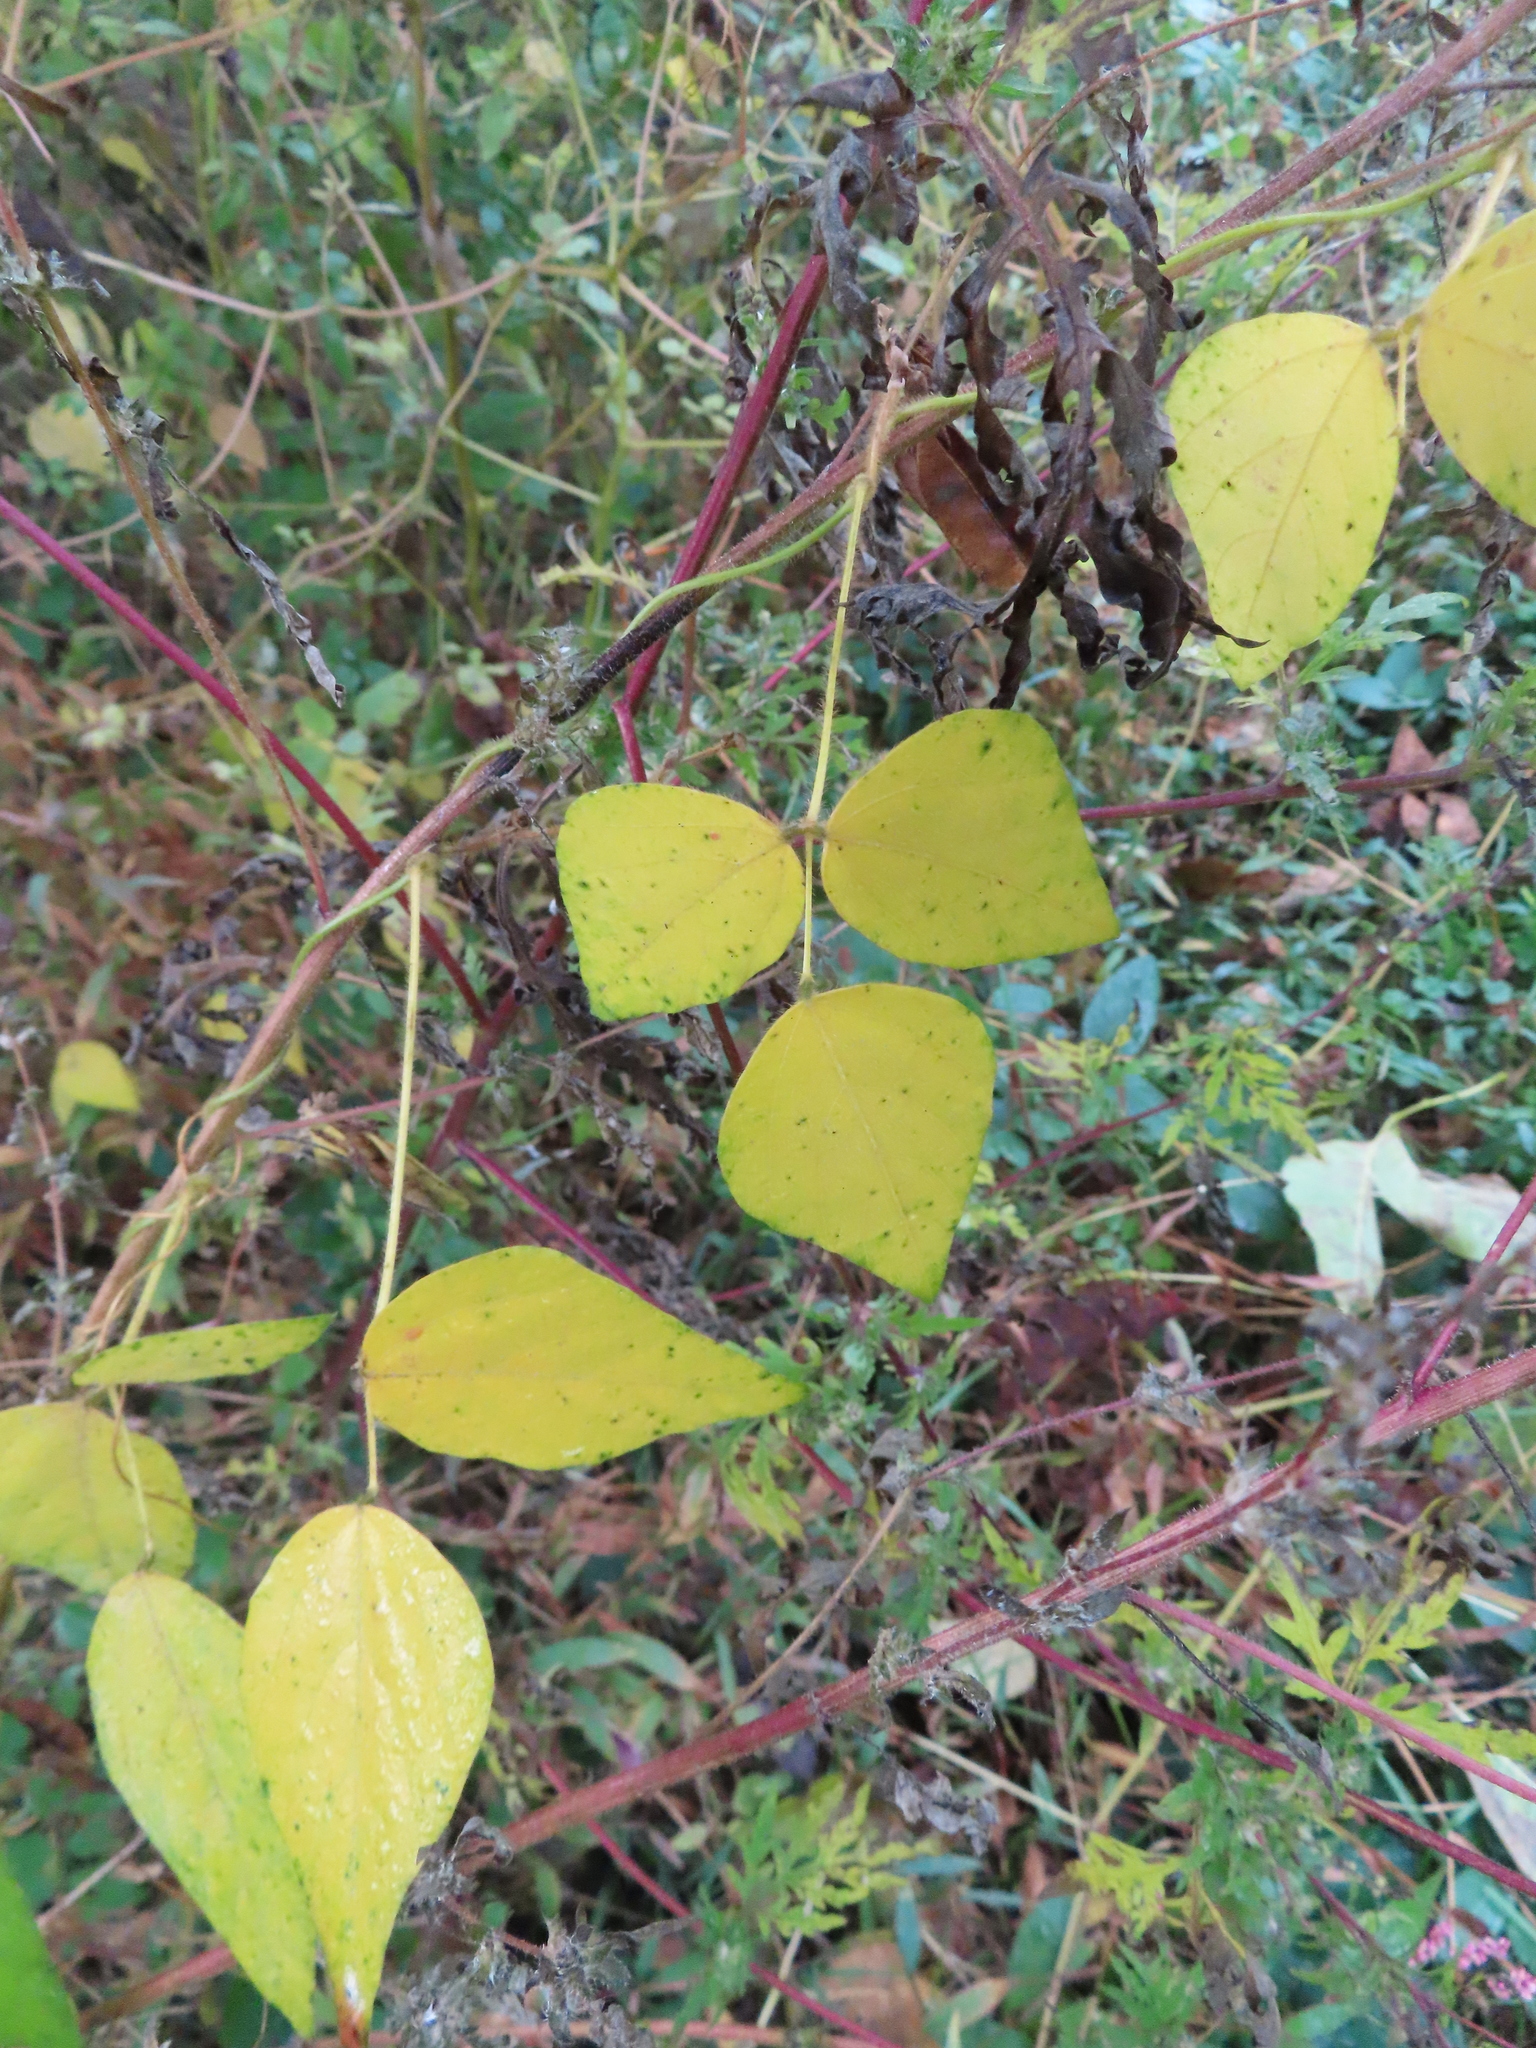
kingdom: Plantae
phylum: Tracheophyta
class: Magnoliopsida
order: Fabales
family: Fabaceae
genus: Amphicarpaea
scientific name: Amphicarpaea bracteata
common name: American hog peanut
